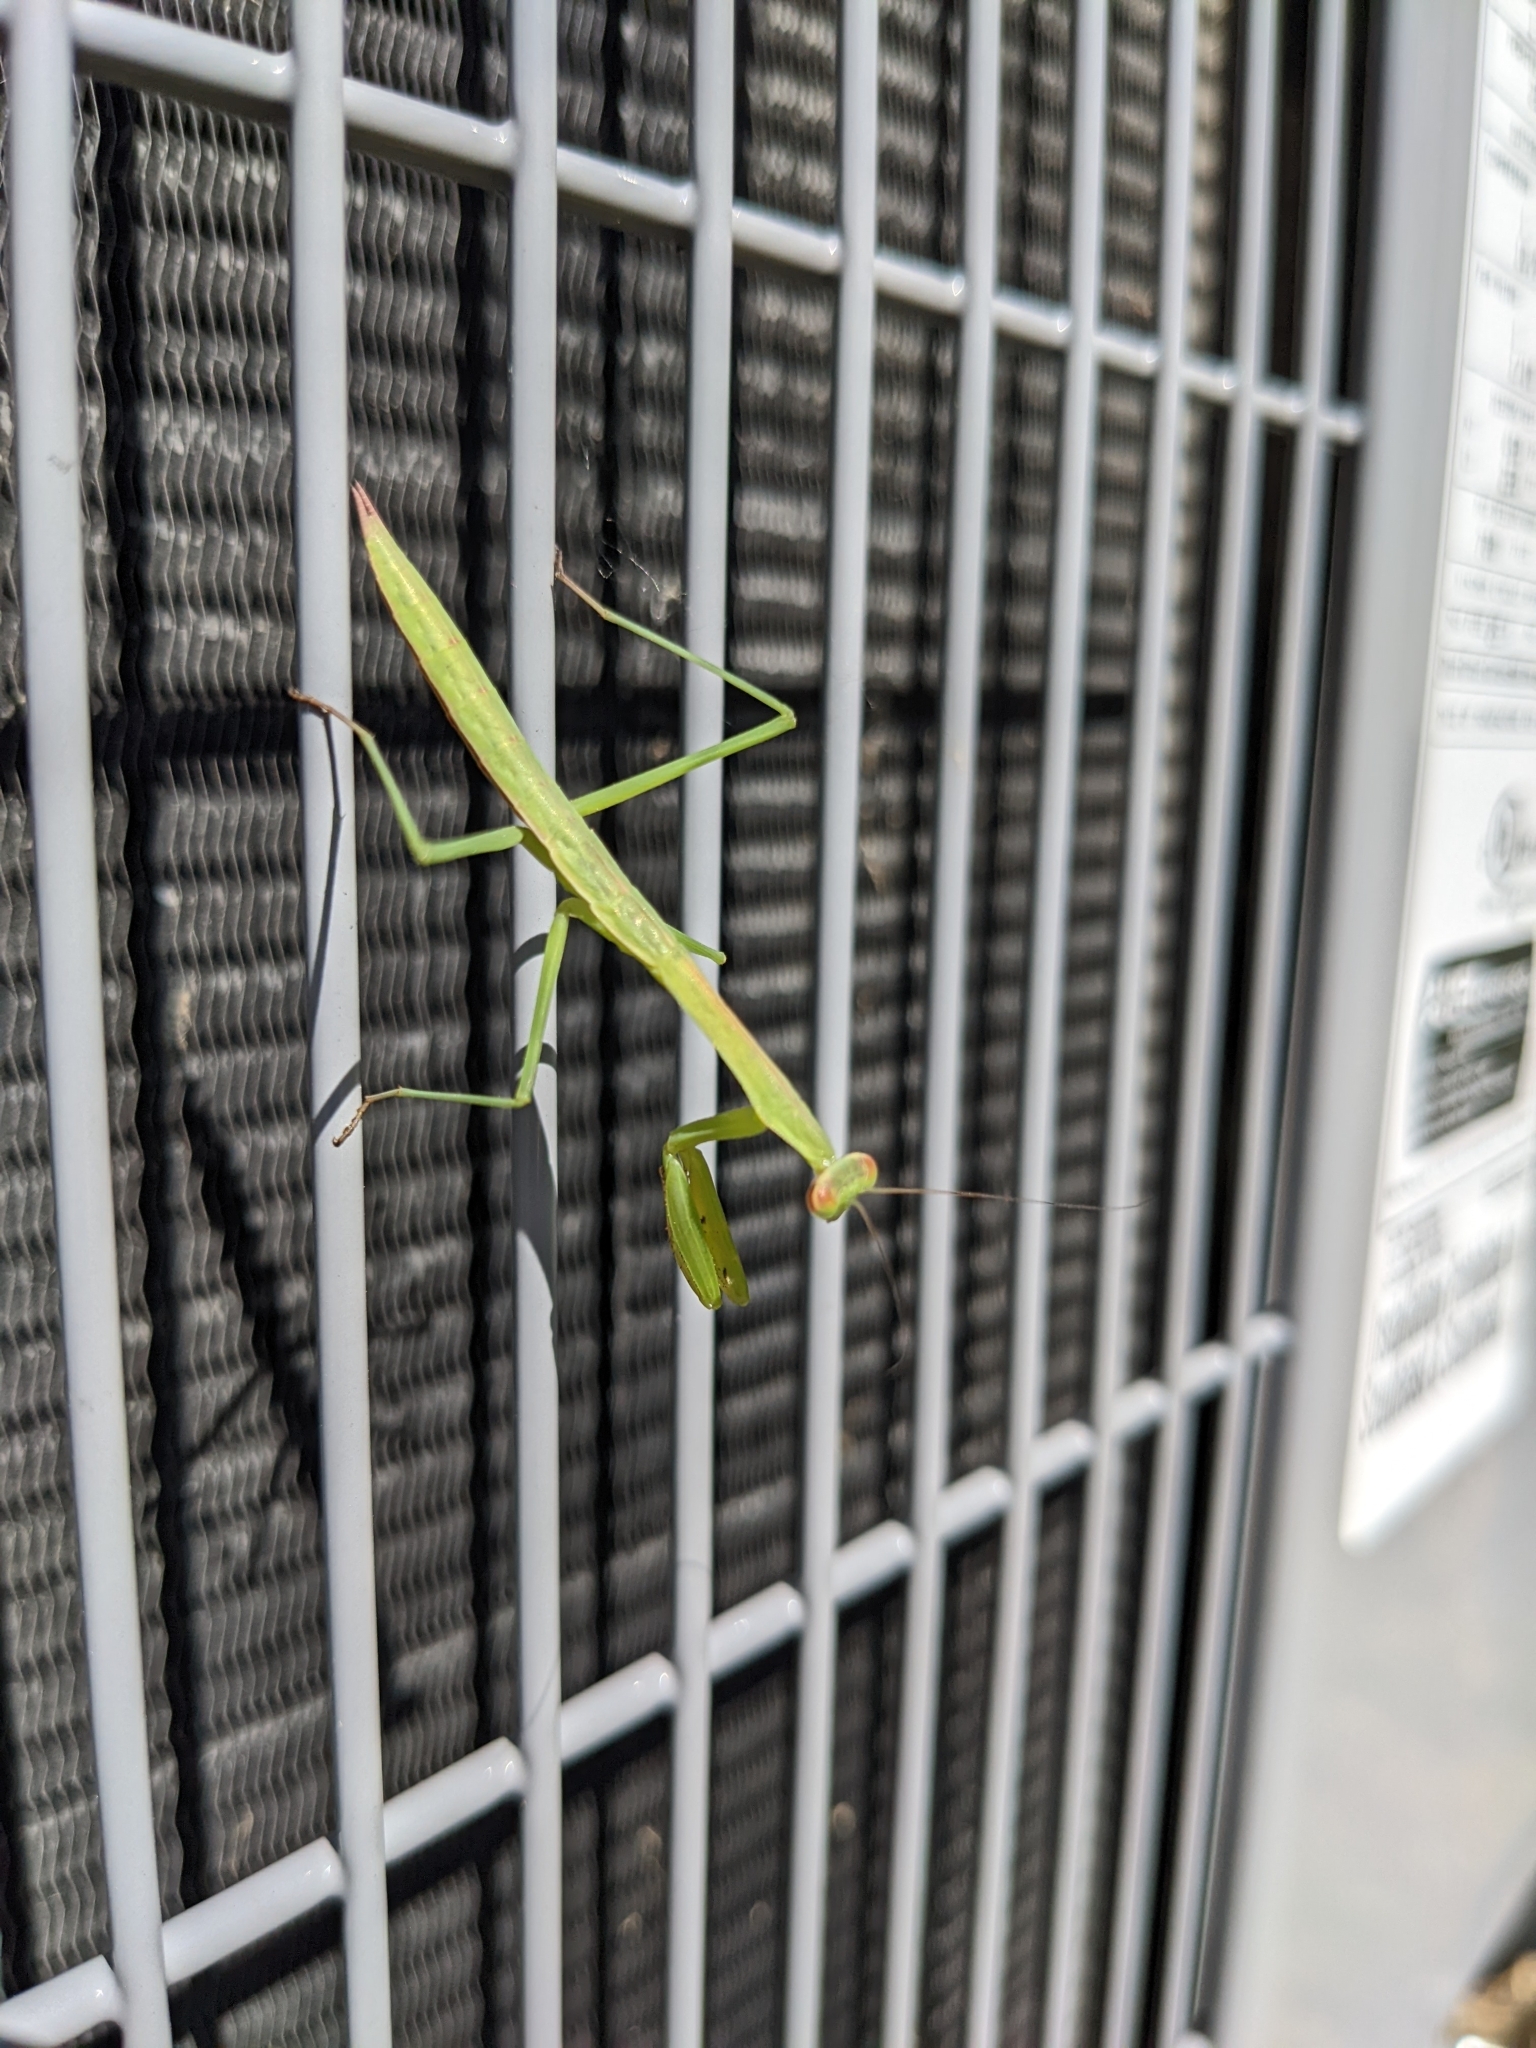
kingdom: Animalia
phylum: Arthropoda
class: Insecta
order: Mantodea
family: Mantidae
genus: Tenodera
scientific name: Tenodera sinensis
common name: Chinese mantis
